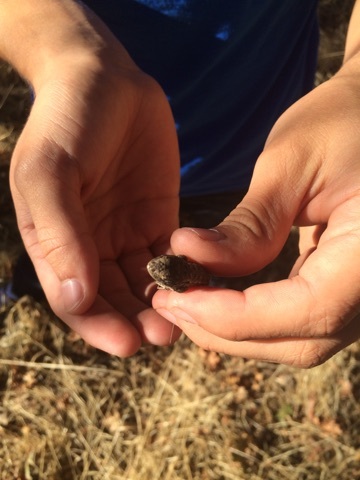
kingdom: Animalia
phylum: Chordata
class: Squamata
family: Phrynosomatidae
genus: Sceloporus
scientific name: Sceloporus occidentalis
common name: Western fence lizard
